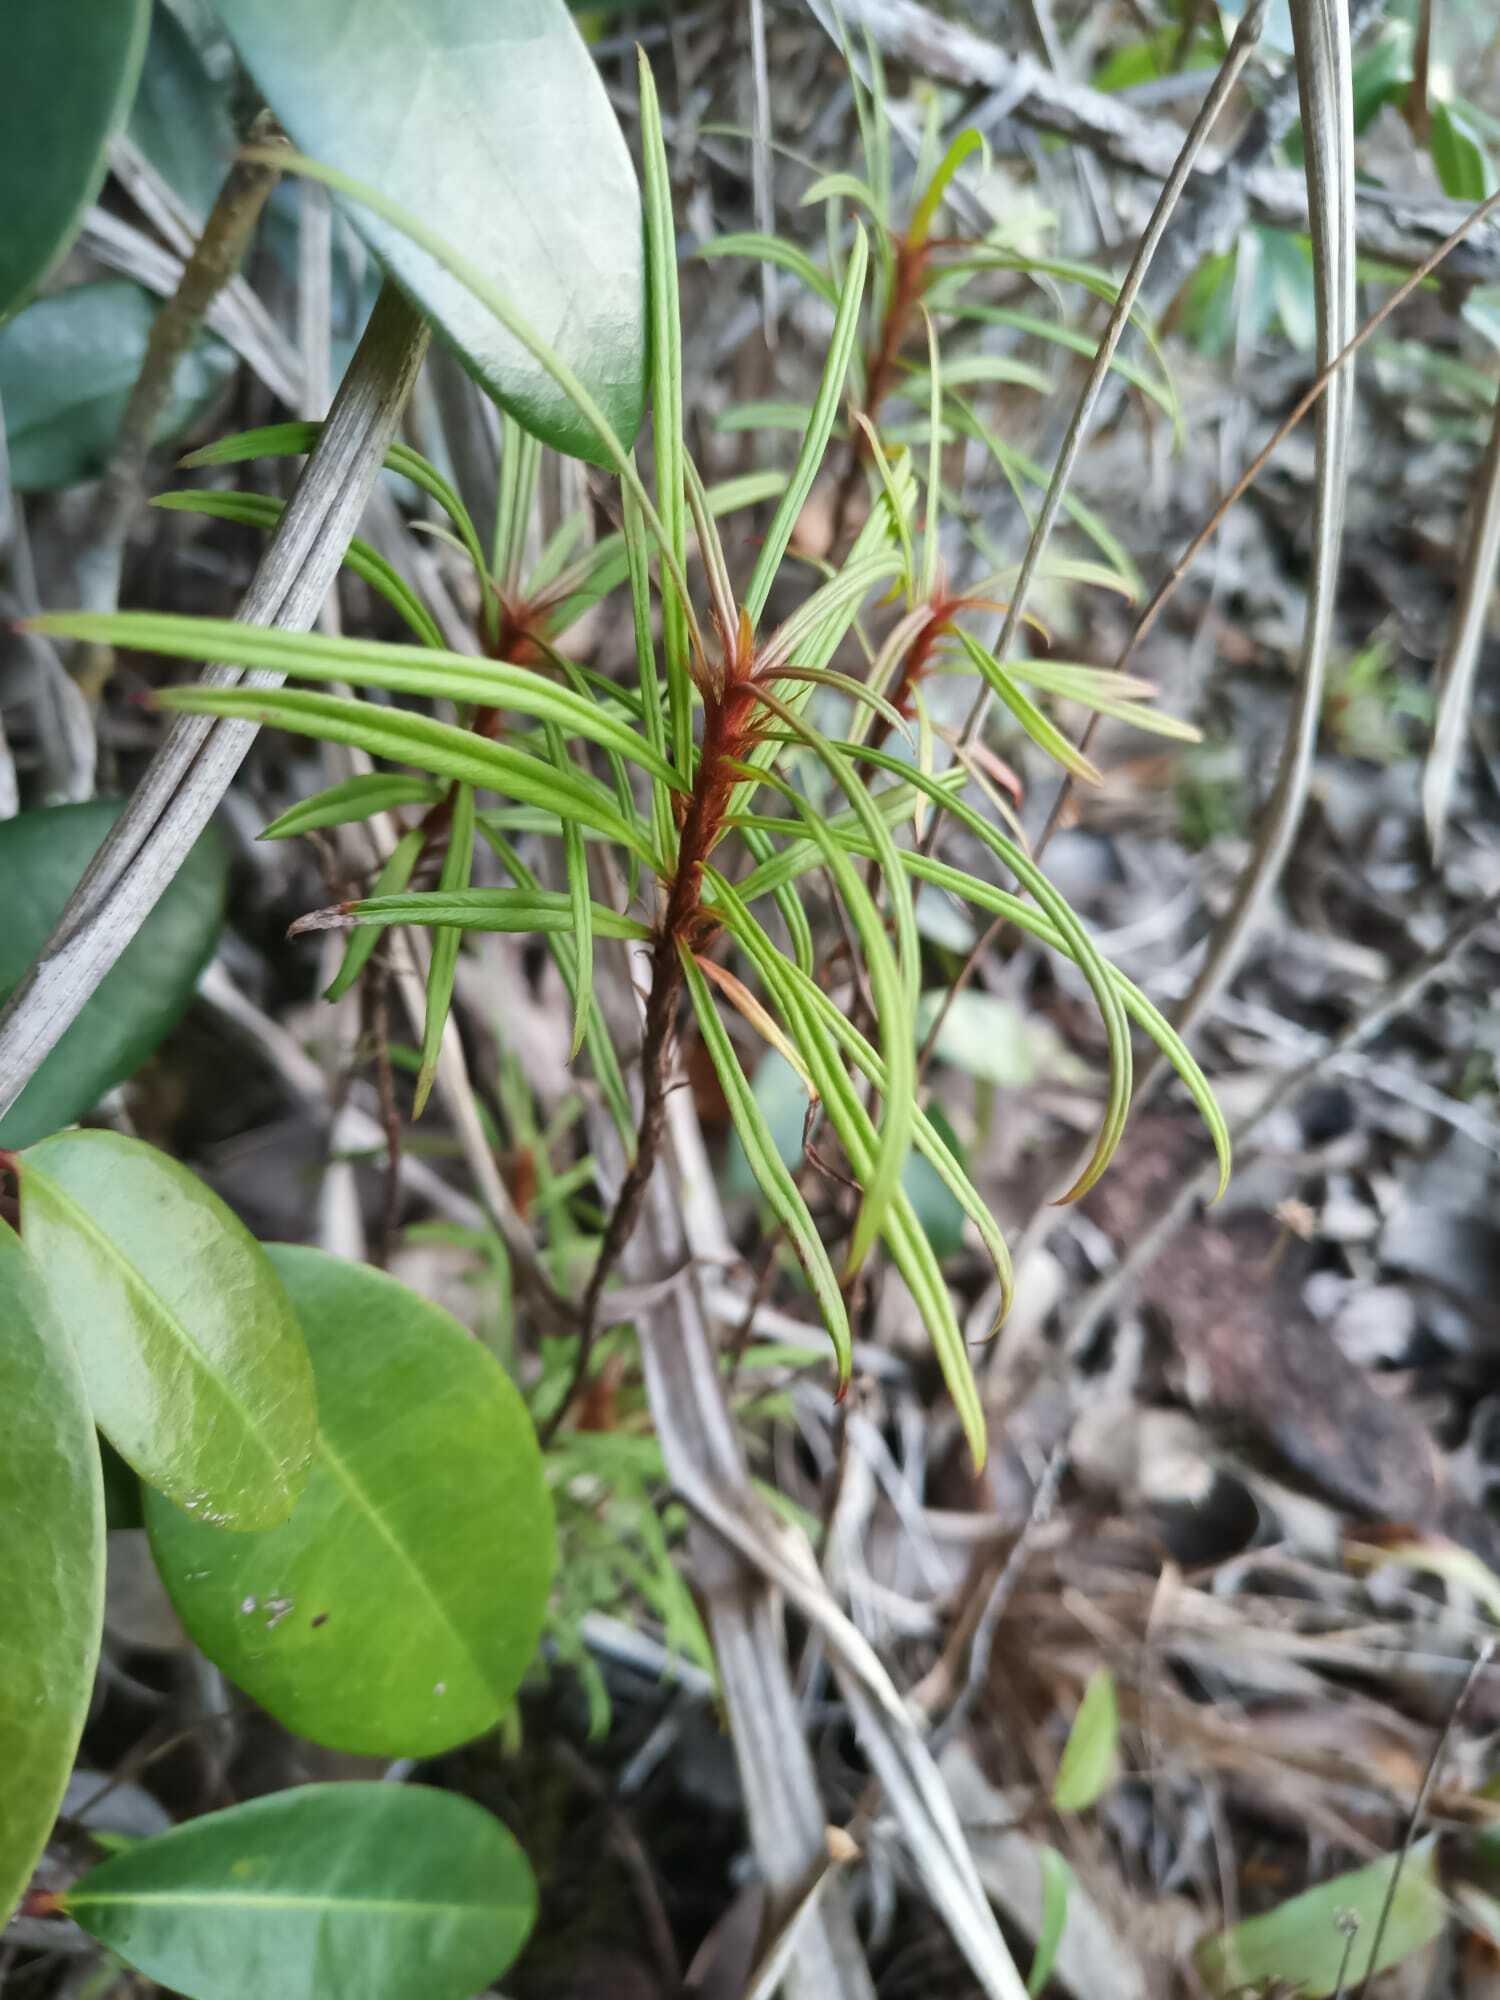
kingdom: Plantae
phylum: Tracheophyta
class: Magnoliopsida
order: Malpighiales
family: Ochnaceae
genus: Sauvagesia
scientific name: Sauvagesia aliciae
